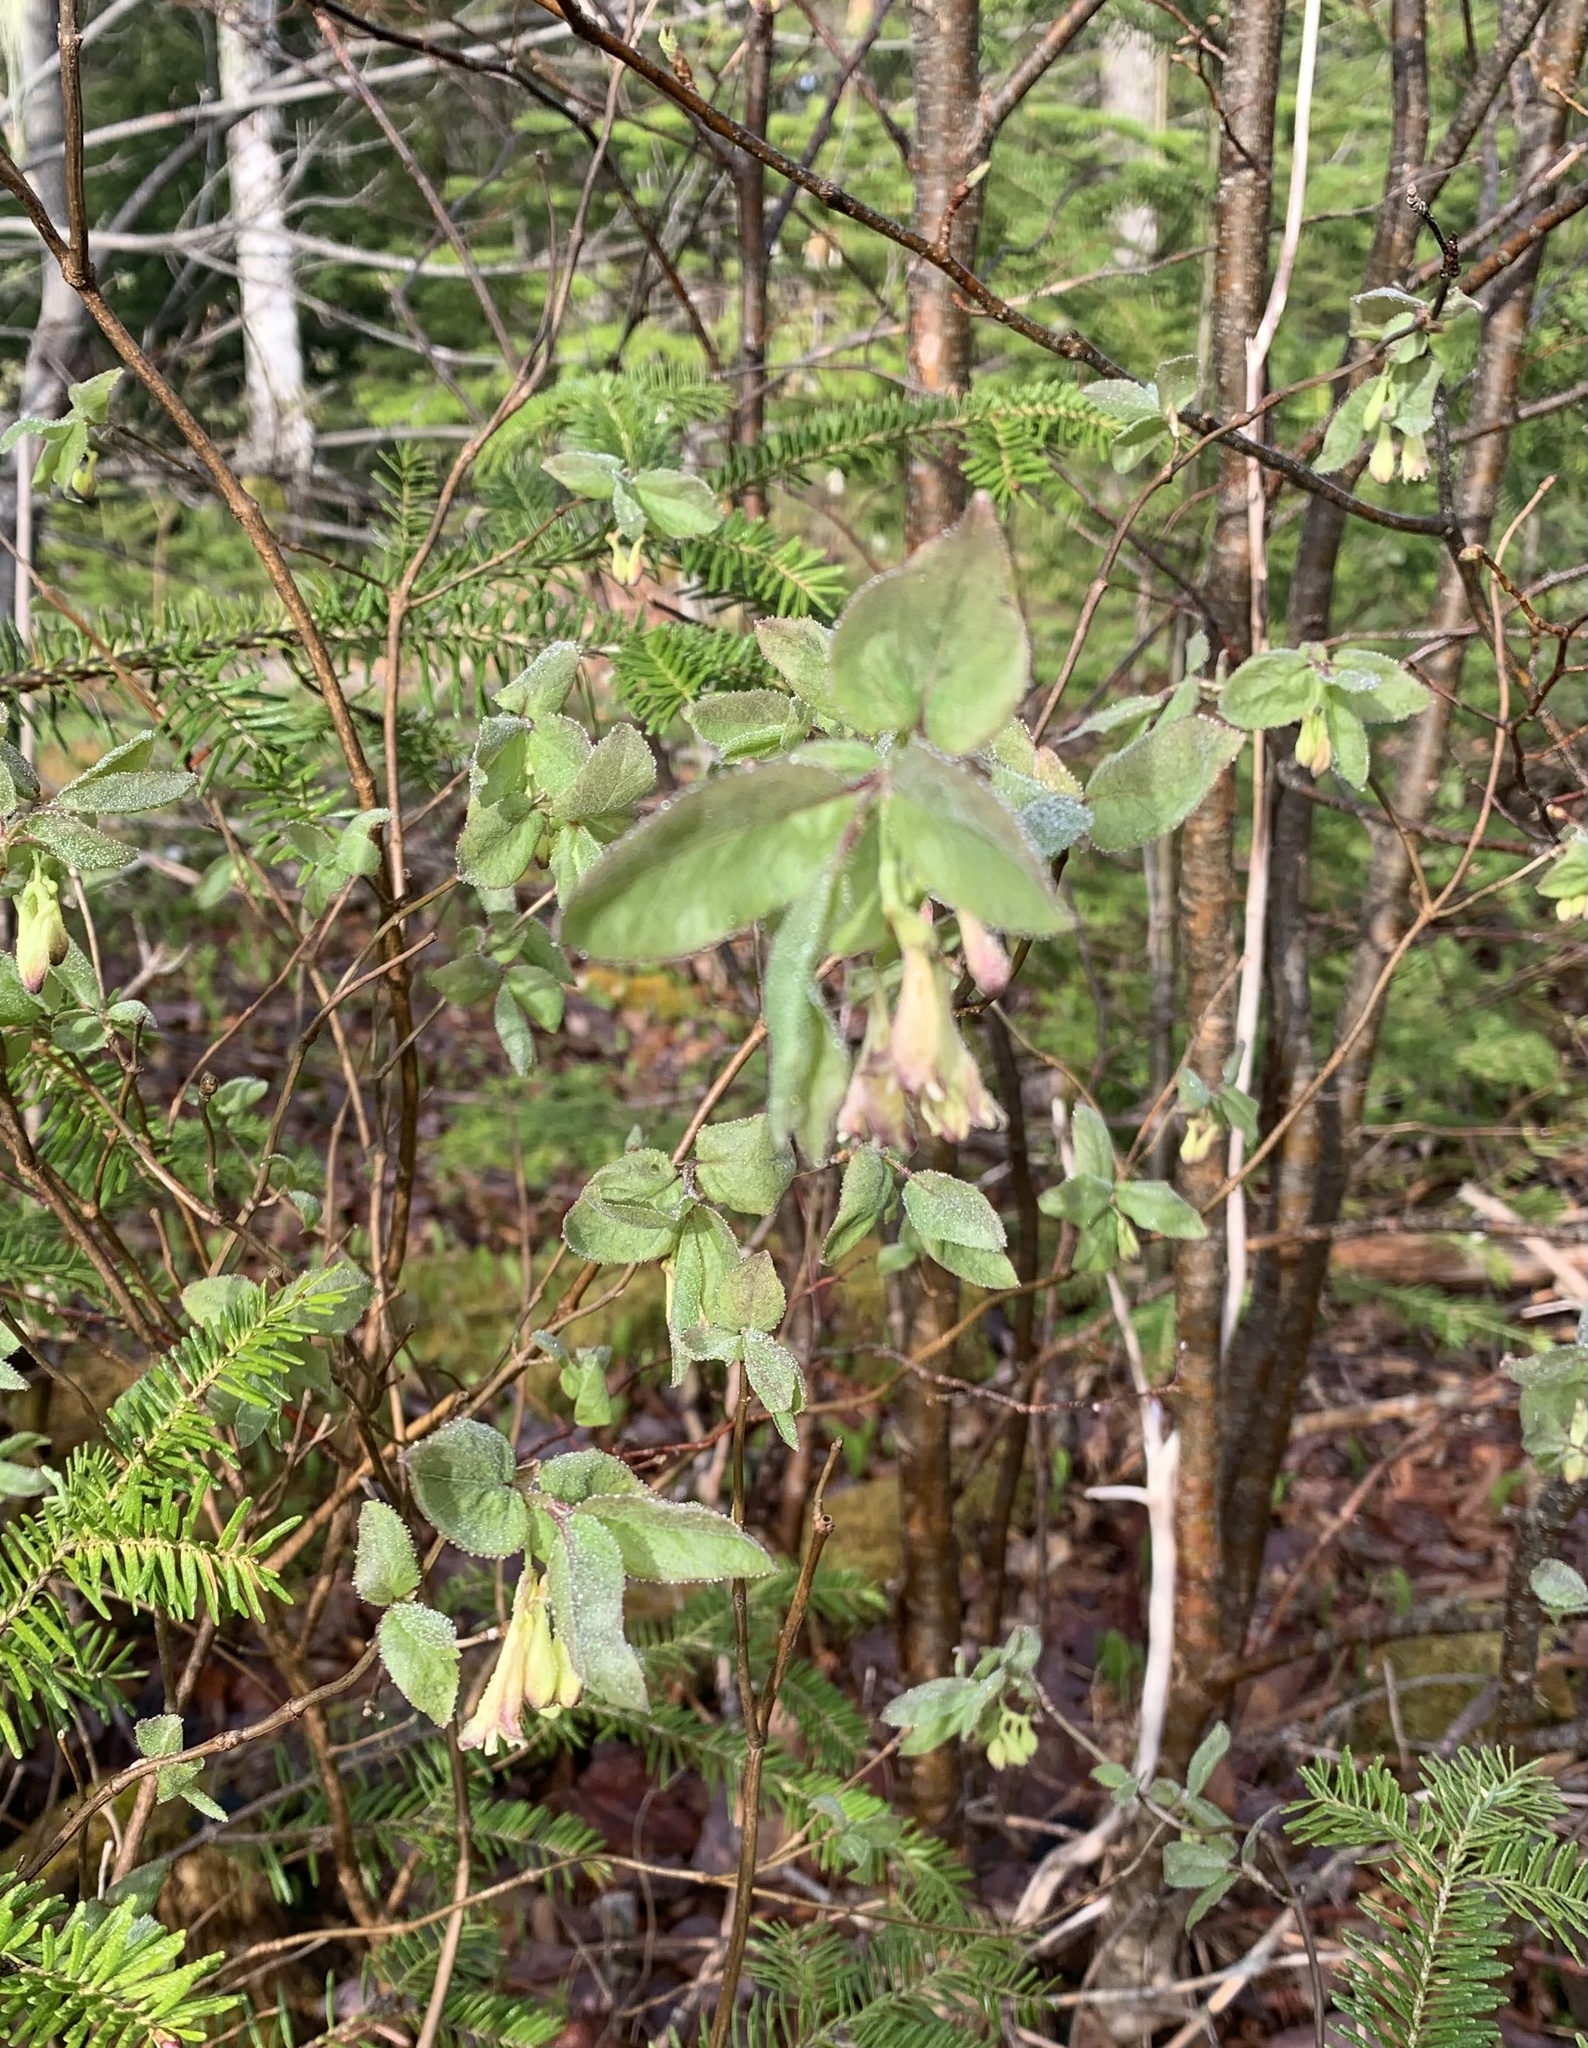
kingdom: Plantae
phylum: Tracheophyta
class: Magnoliopsida
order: Dipsacales
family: Caprifoliaceae
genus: Lonicera
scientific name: Lonicera canadensis
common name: American fly-honeysuckle
